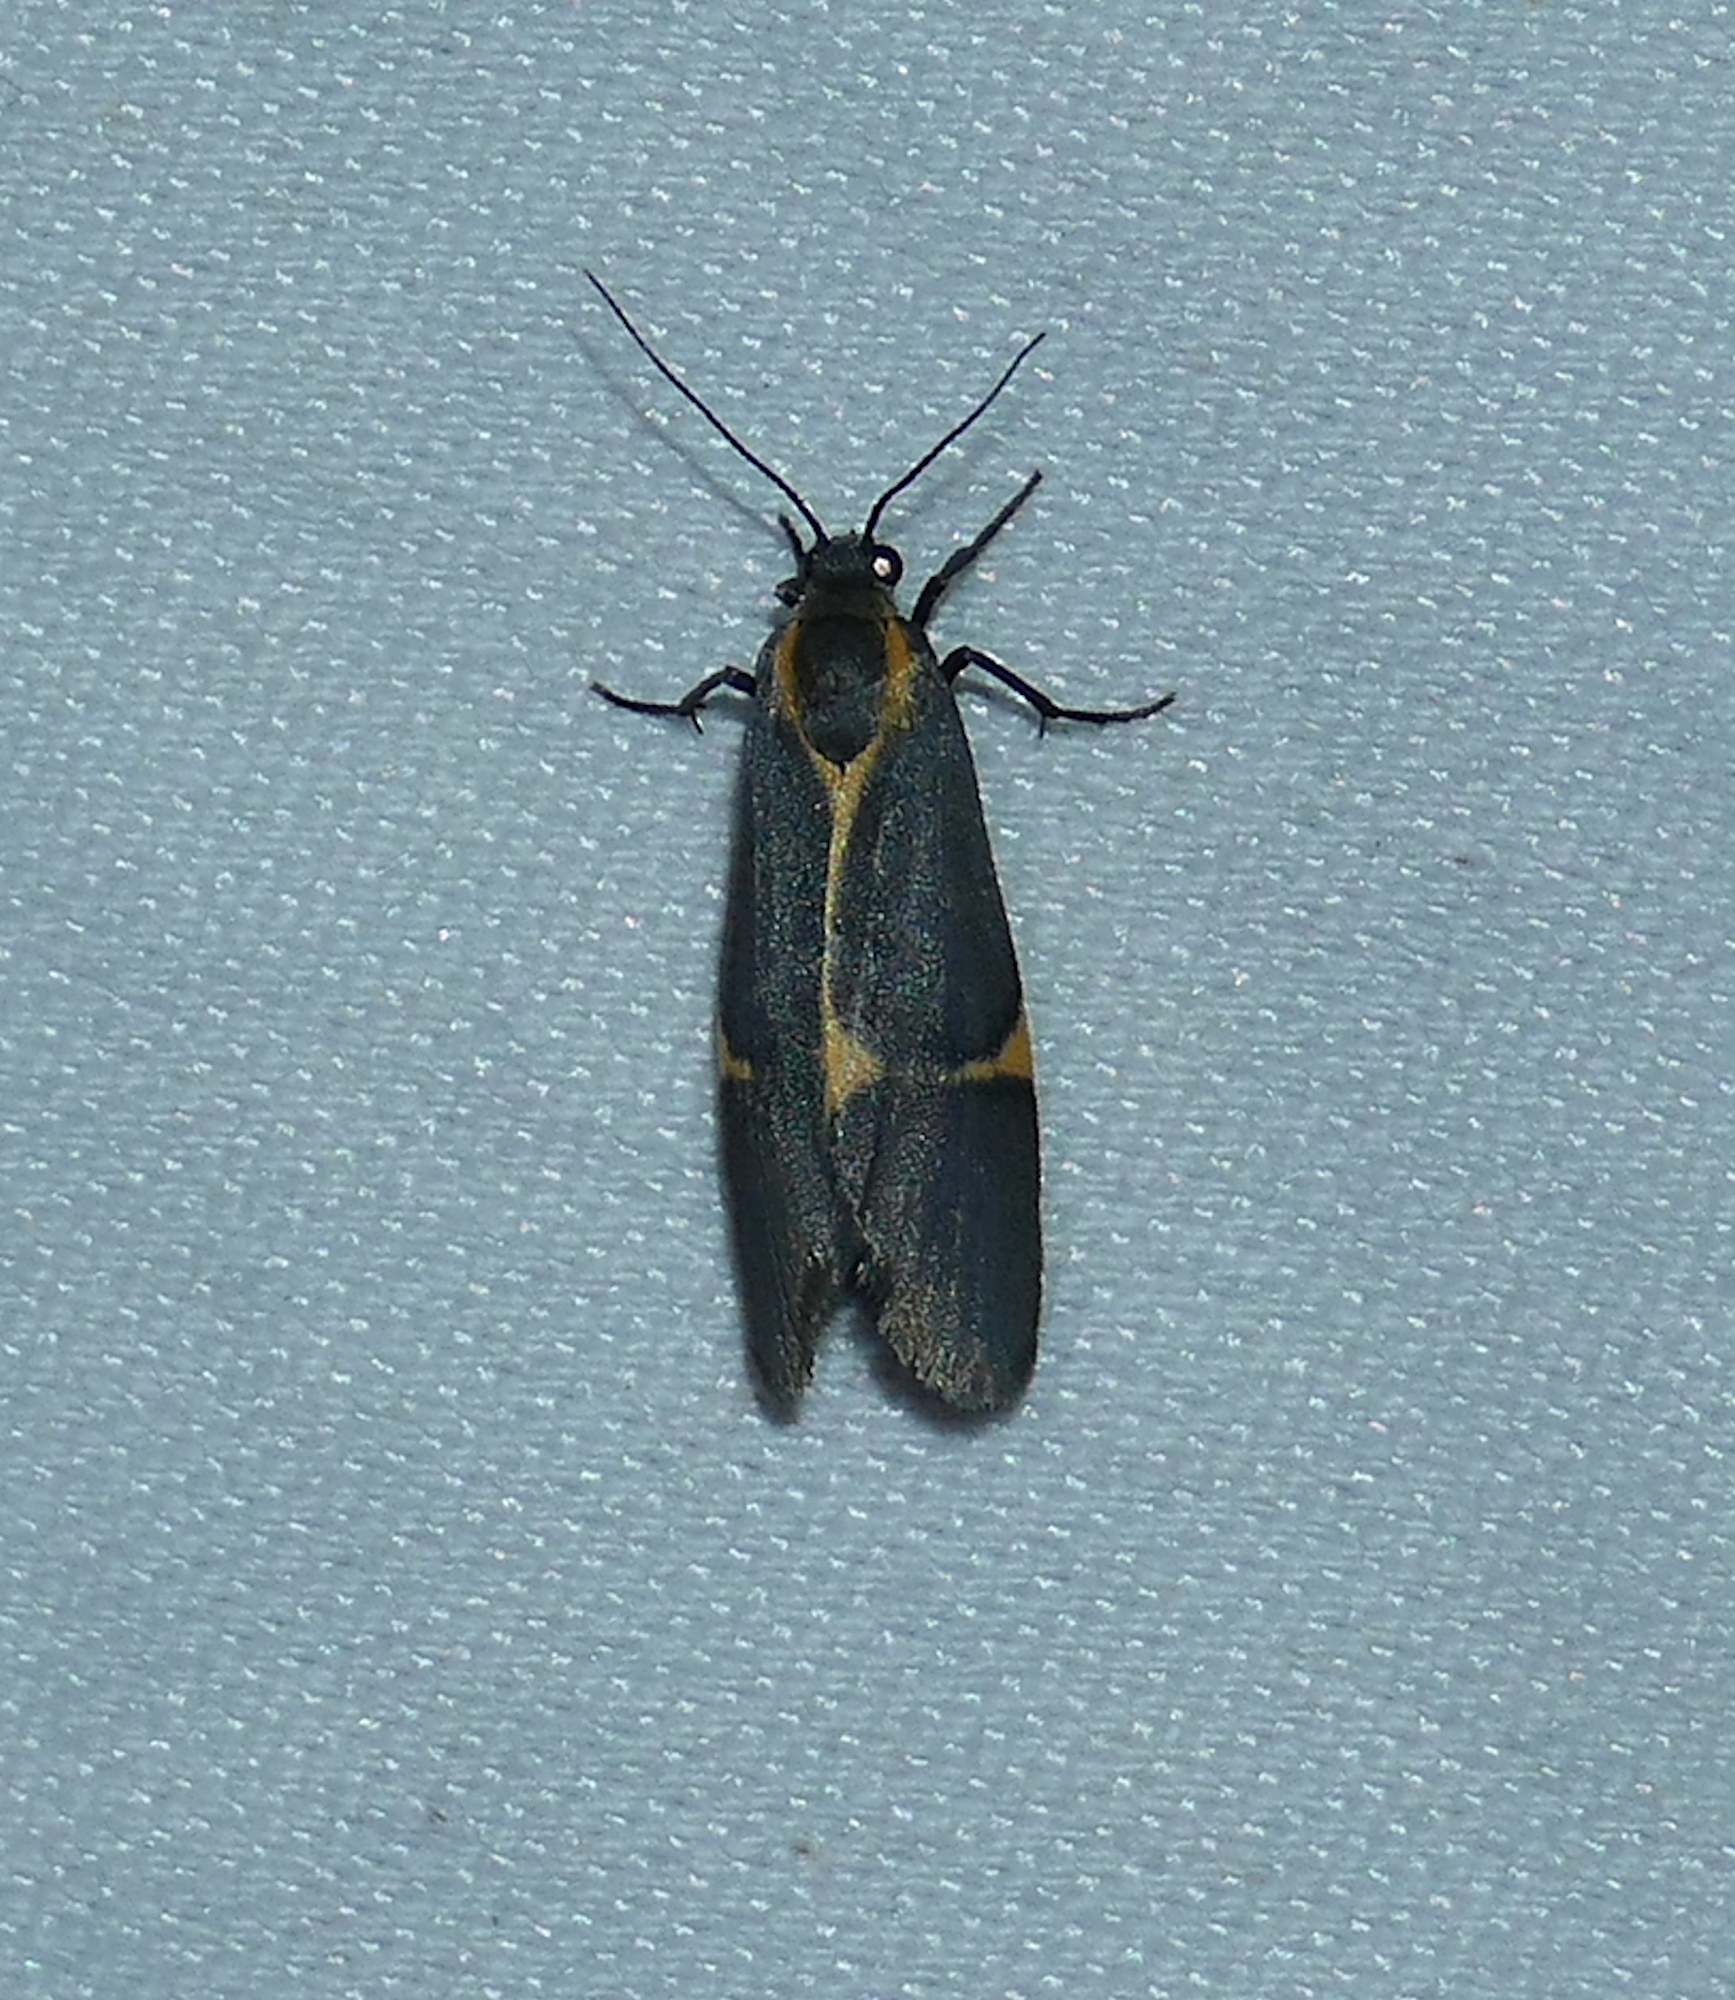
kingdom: Animalia
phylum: Arthropoda
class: Insecta
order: Lepidoptera
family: Erebidae
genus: Cisthene
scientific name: Cisthene barnesii
